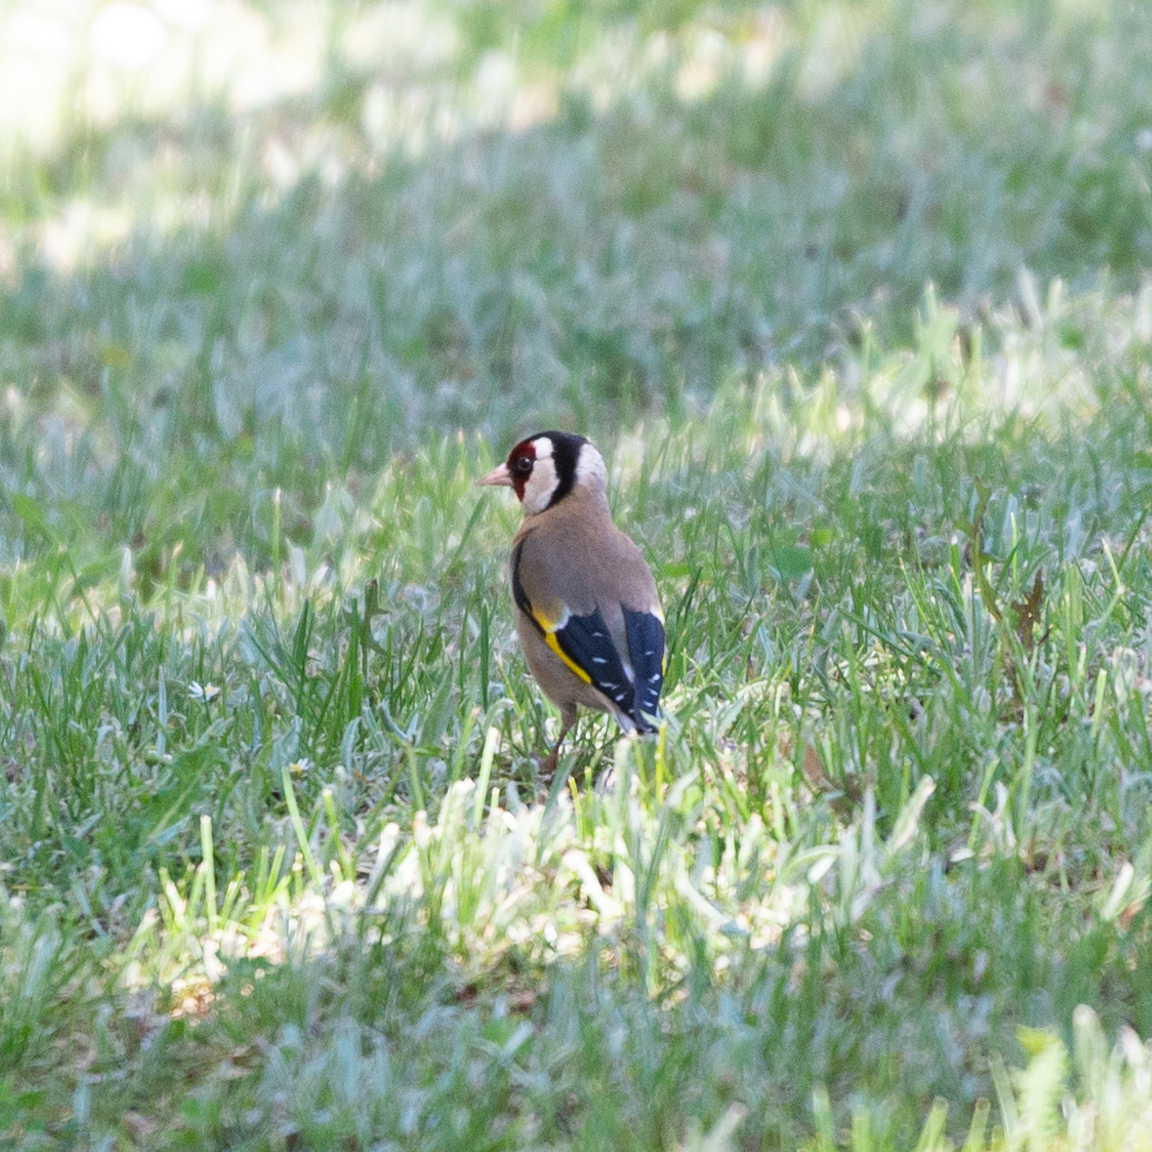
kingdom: Animalia
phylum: Chordata
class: Aves
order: Passeriformes
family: Fringillidae
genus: Carduelis
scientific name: Carduelis carduelis
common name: European goldfinch
